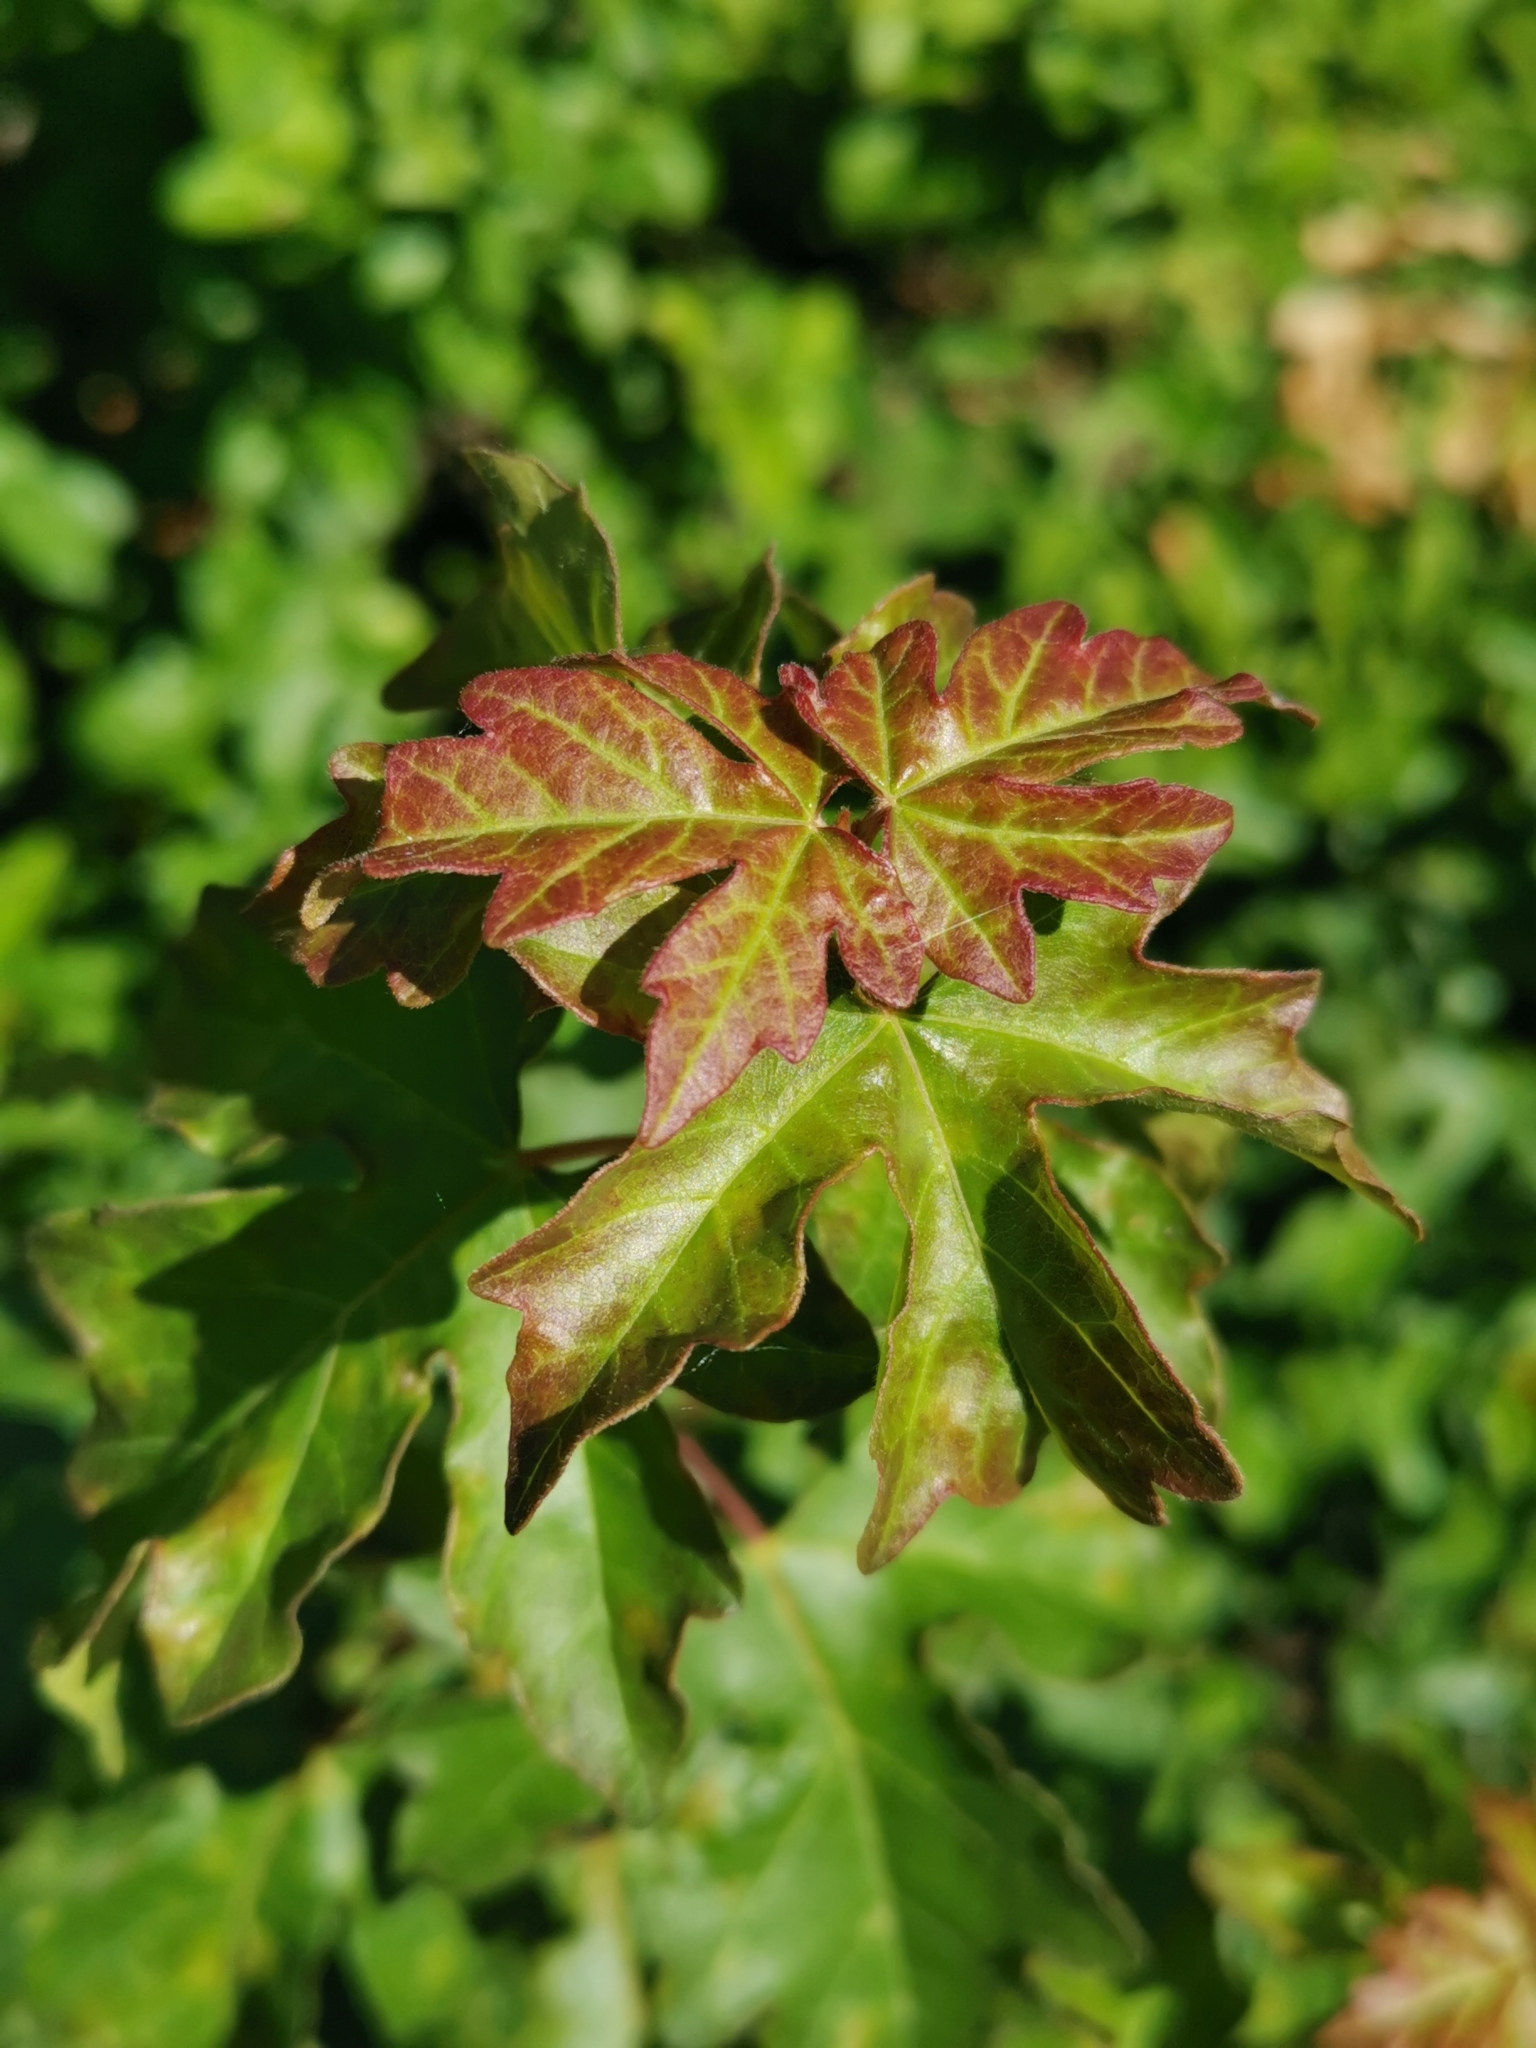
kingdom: Plantae
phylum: Tracheophyta
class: Magnoliopsida
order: Sapindales
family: Sapindaceae
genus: Acer
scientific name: Acer campestre
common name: Field maple
